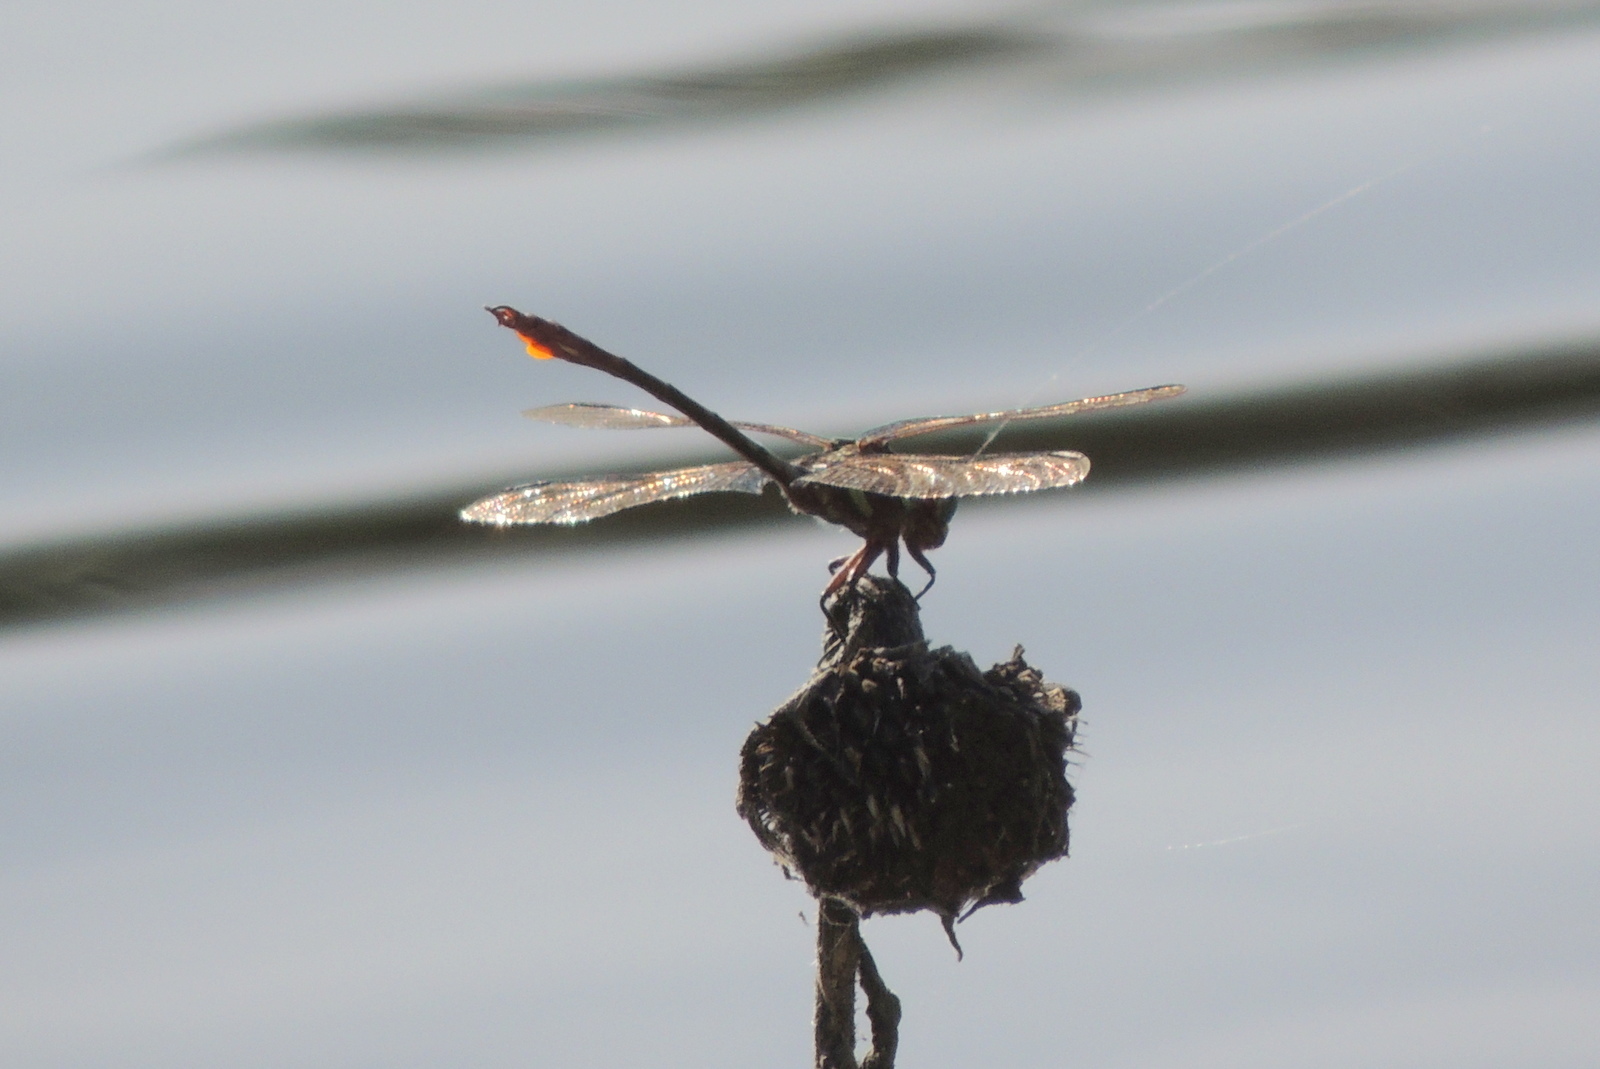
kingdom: Animalia
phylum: Arthropoda
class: Insecta
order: Odonata
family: Gomphidae
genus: Aphylla
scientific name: Aphylla williamsoni
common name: Two-striped forceptail
